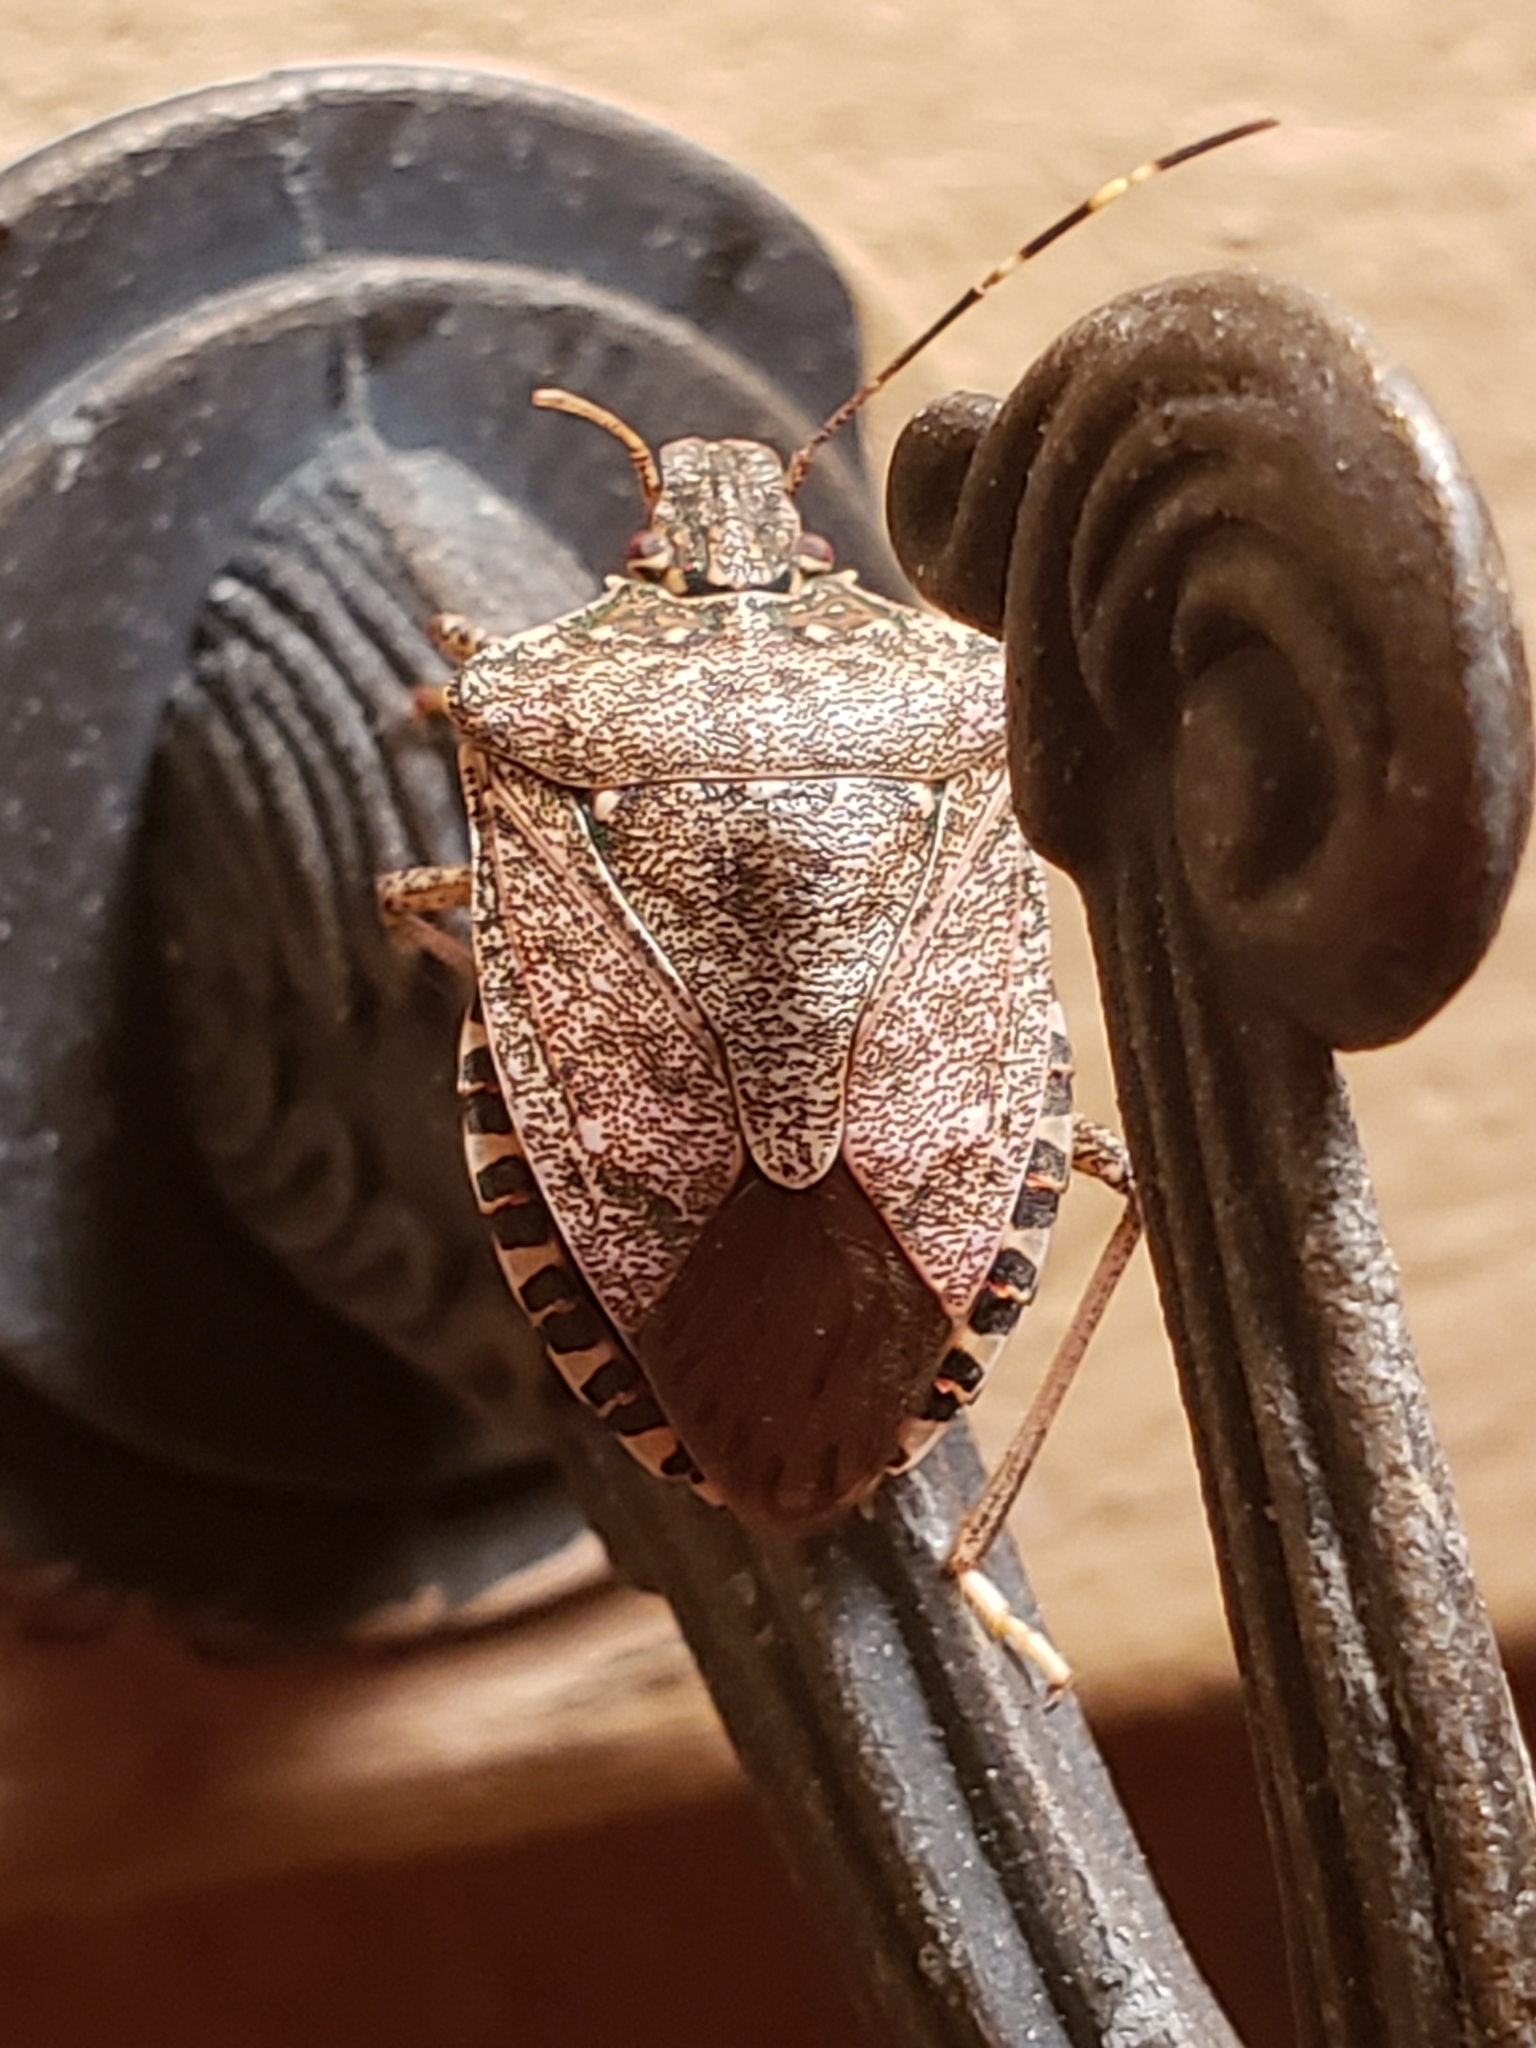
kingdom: Animalia
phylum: Arthropoda
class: Insecta
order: Hemiptera
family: Pentatomidae
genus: Halyomorpha
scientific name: Halyomorpha halys
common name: Brown marmorated stink bug
